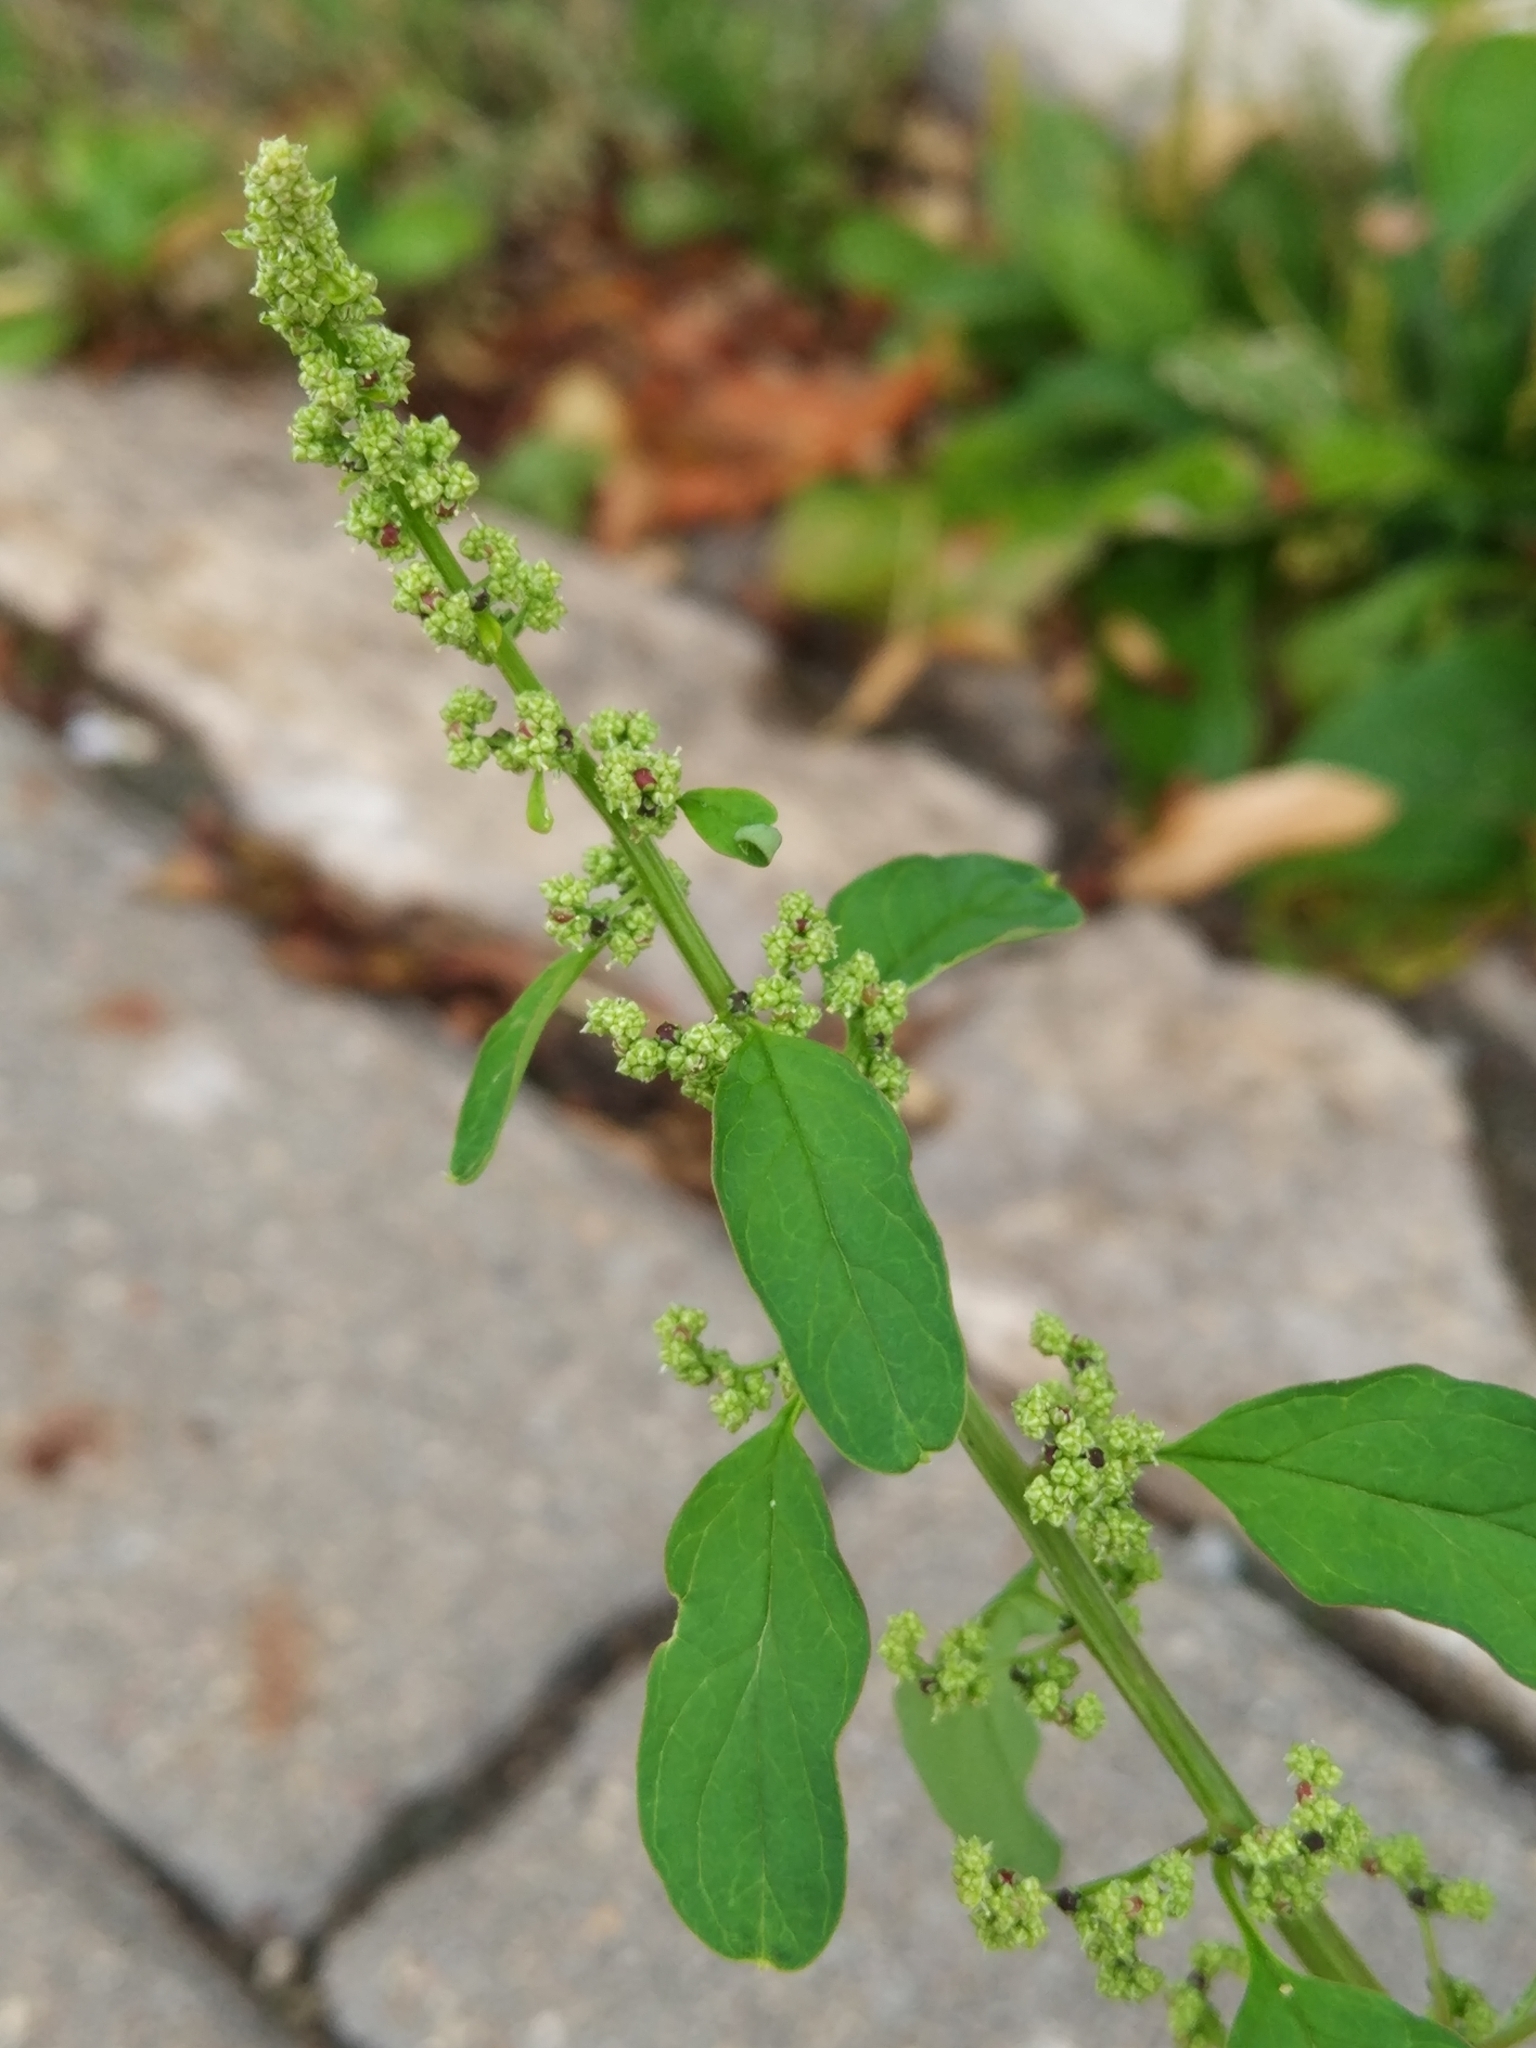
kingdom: Plantae
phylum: Tracheophyta
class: Magnoliopsida
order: Caryophyllales
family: Amaranthaceae
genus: Lipandra
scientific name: Lipandra polysperma
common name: Many-seed goosefoot
